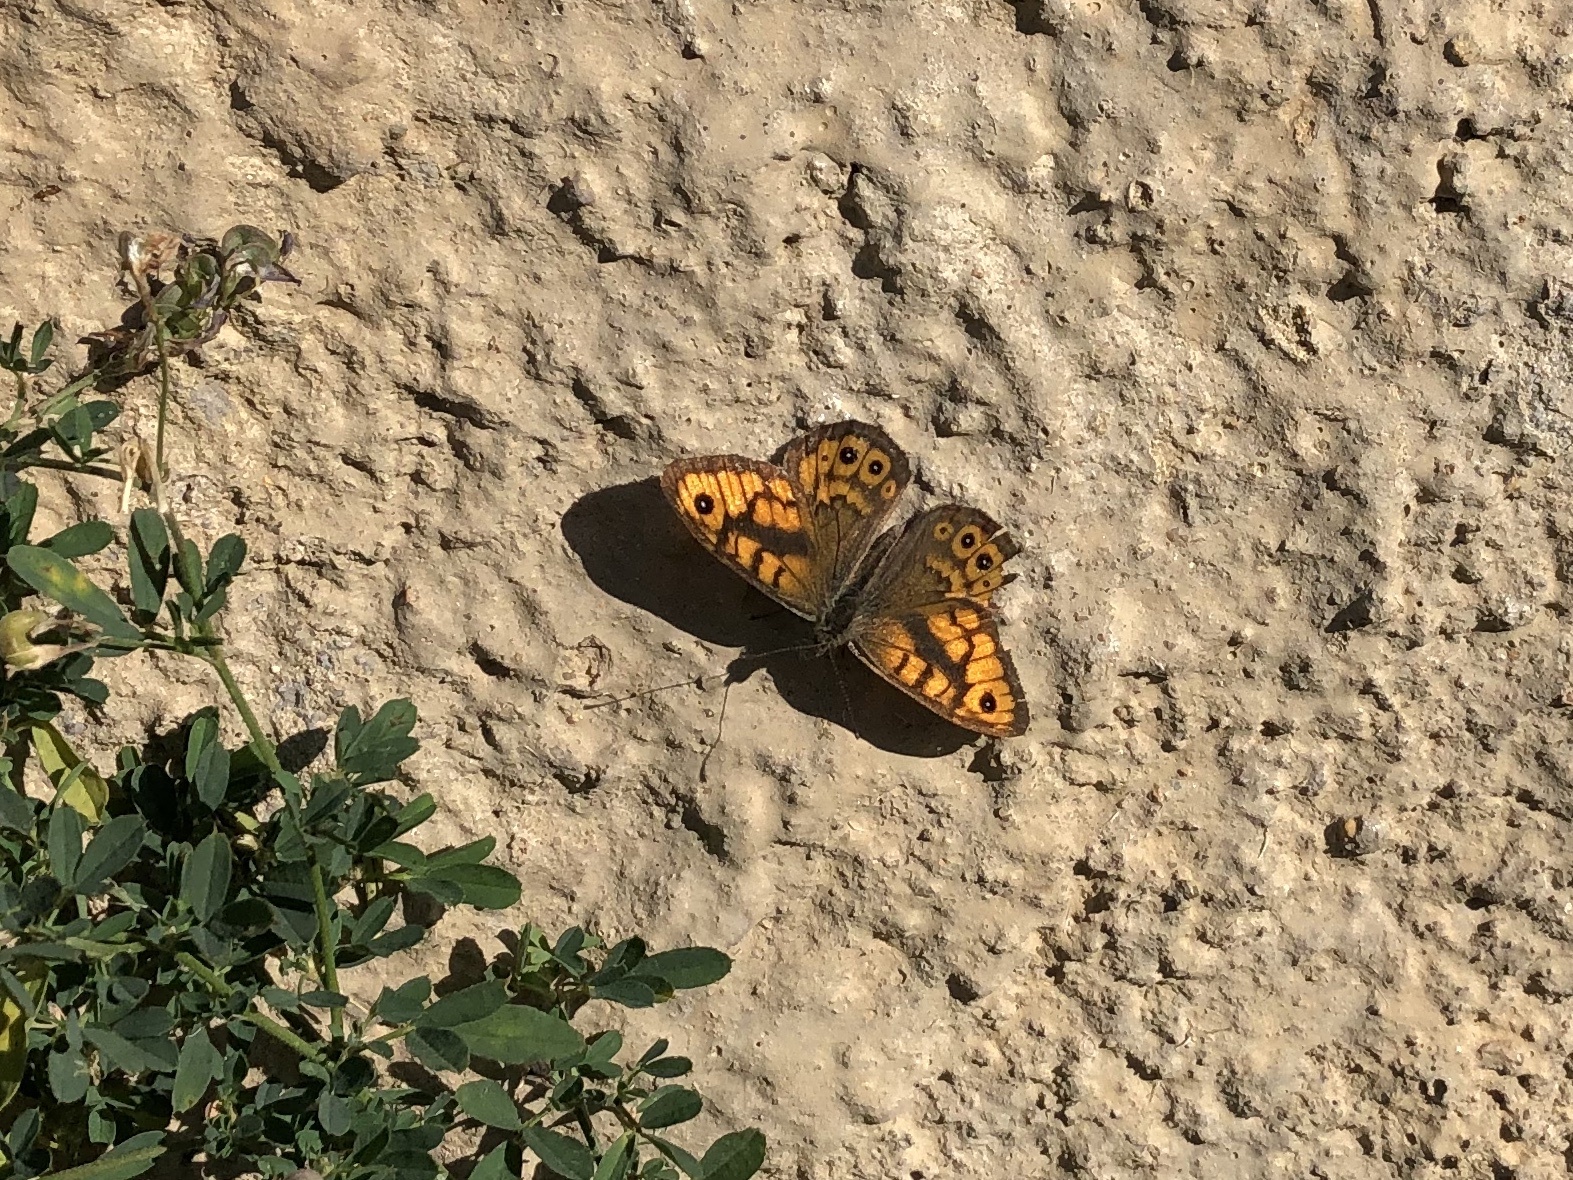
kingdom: Animalia
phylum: Arthropoda
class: Insecta
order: Lepidoptera
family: Nymphalidae
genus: Pararge
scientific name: Pararge Lasiommata megera
